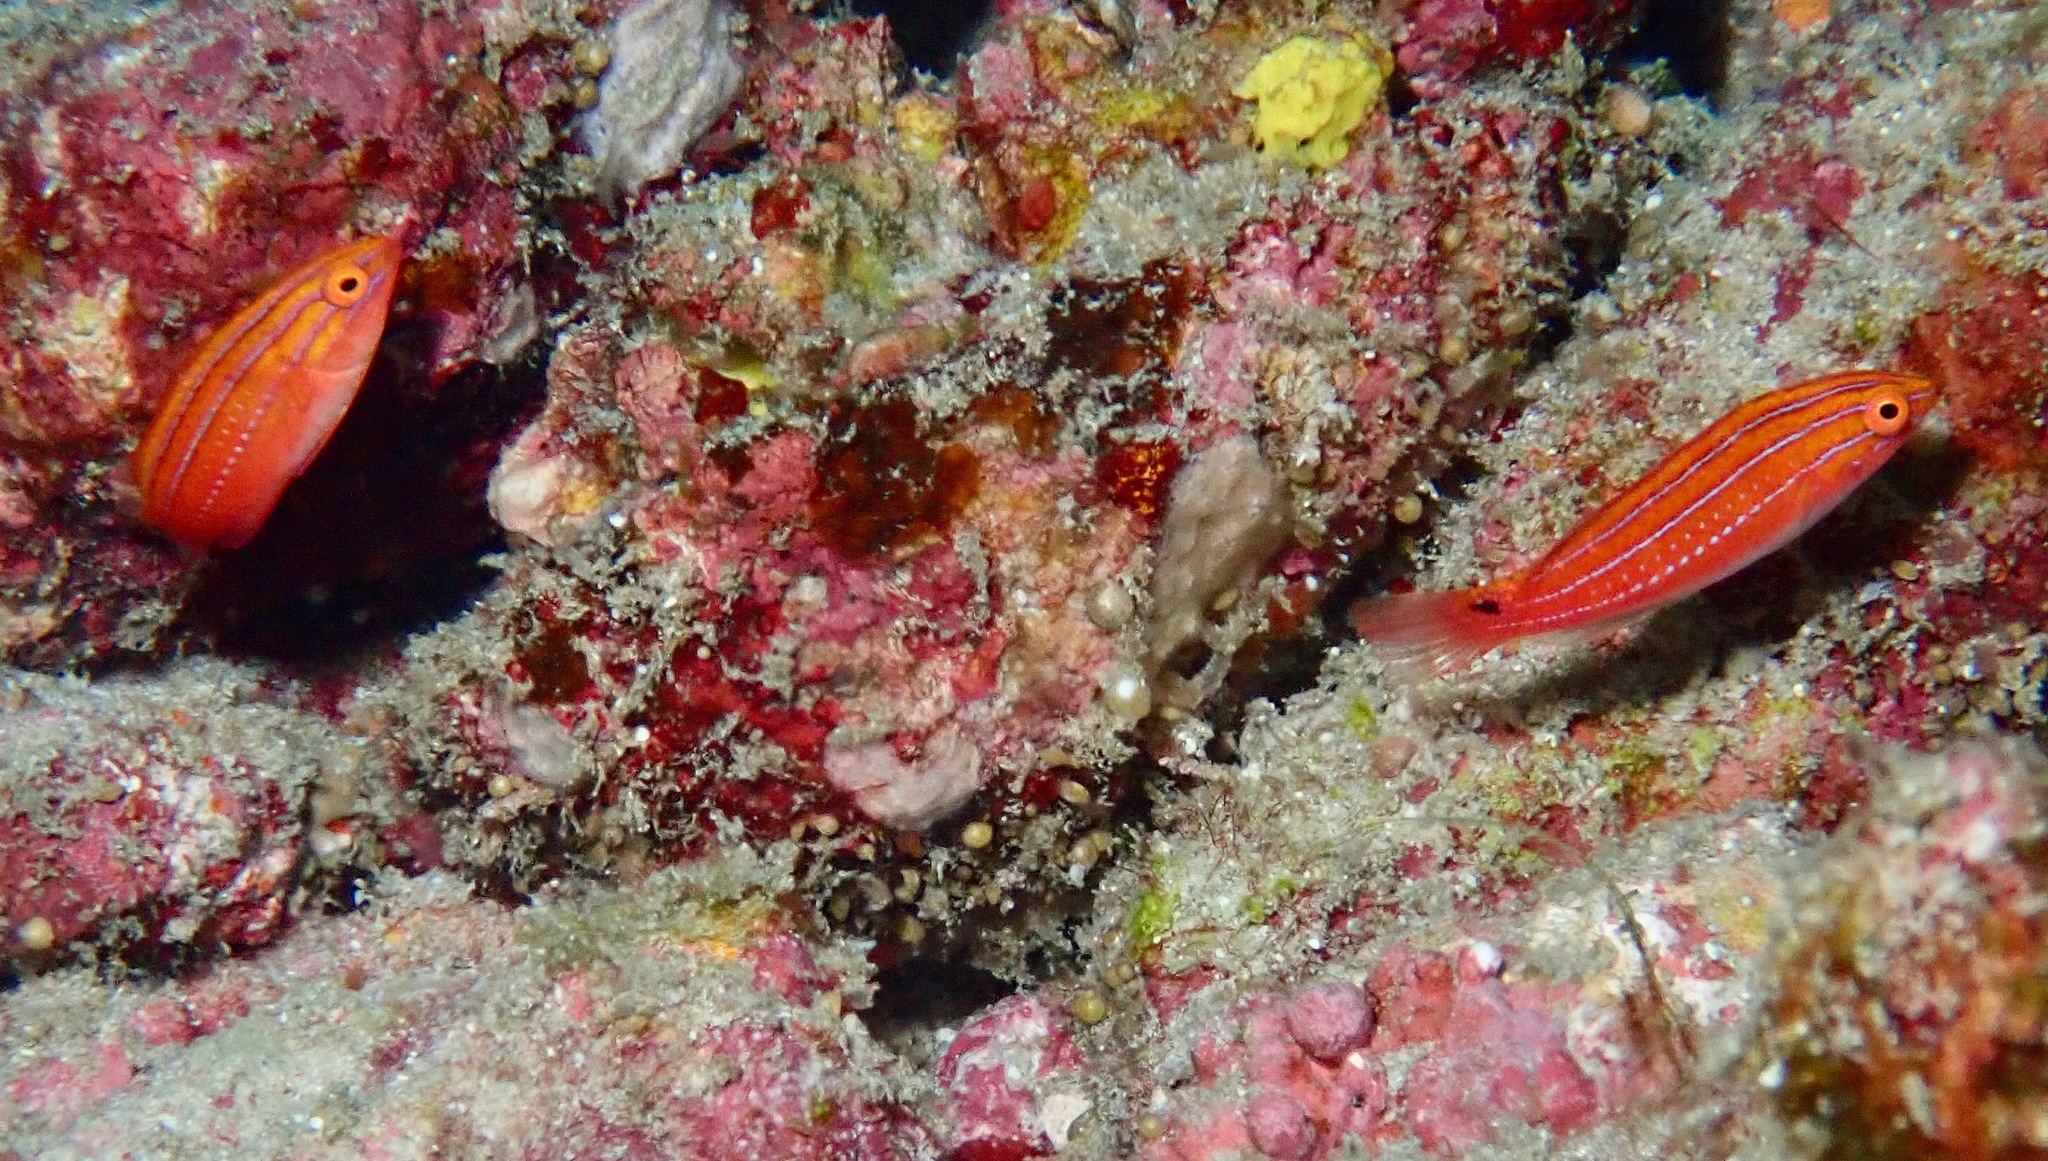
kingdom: Animalia
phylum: Chordata
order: Perciformes
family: Labridae
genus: Cirrhilabrus
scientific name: Cirrhilabrus joanallenae
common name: Pulauweh wrasse
